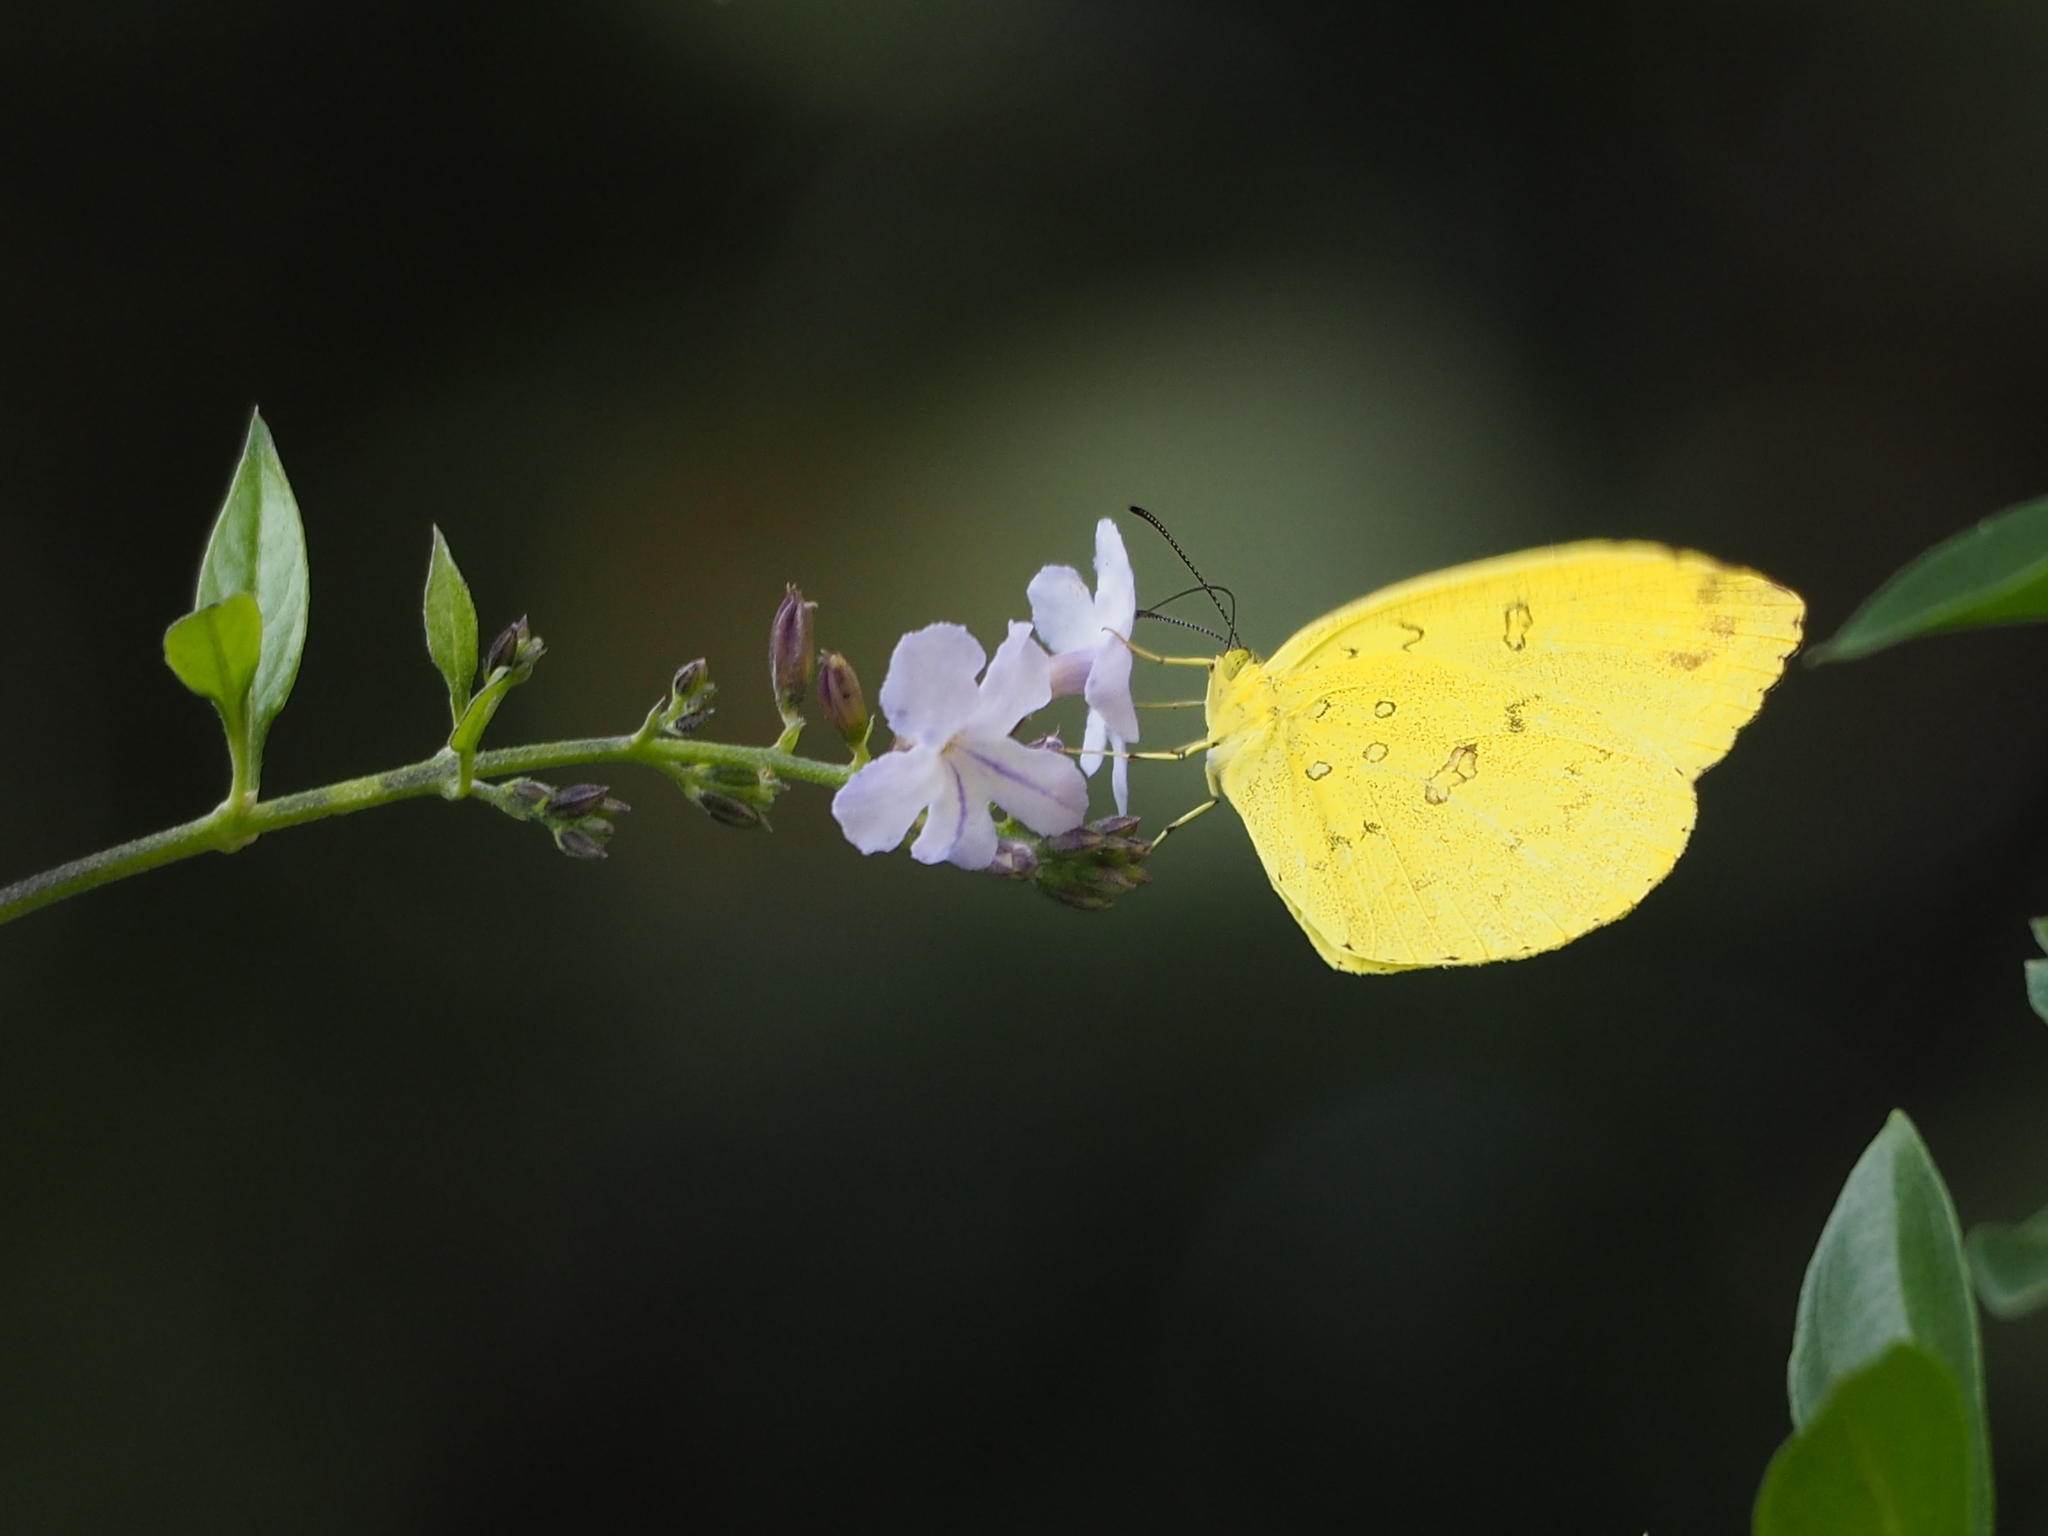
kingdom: Animalia
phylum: Arthropoda
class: Insecta
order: Lepidoptera
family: Pieridae
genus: Eurema
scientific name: Eurema hecabe
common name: Pale grass yellow
